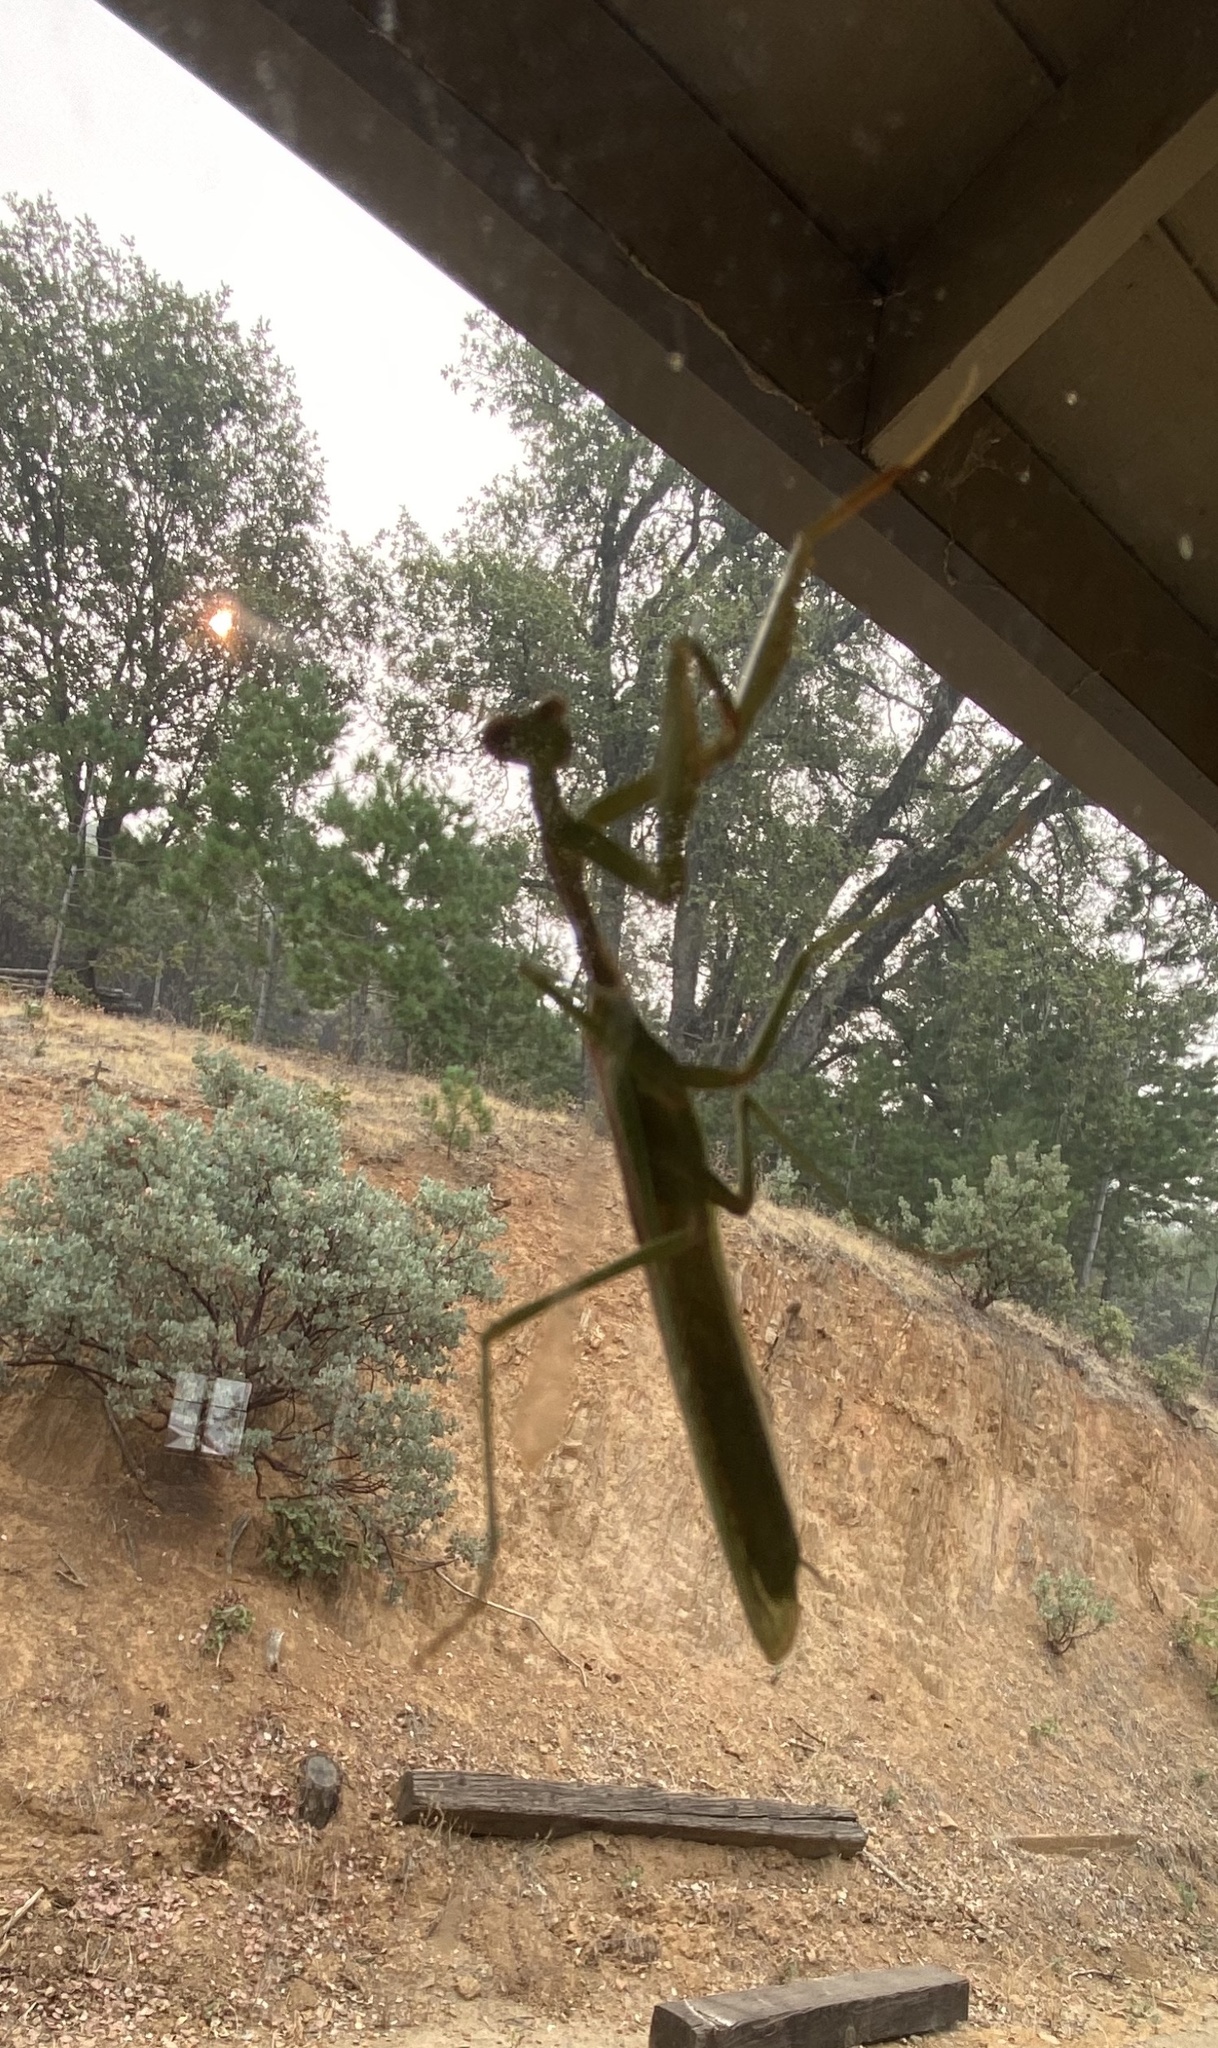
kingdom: Animalia
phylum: Arthropoda
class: Insecta
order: Mantodea
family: Mantidae
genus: Stagmomantis
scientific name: Stagmomantis limbata
